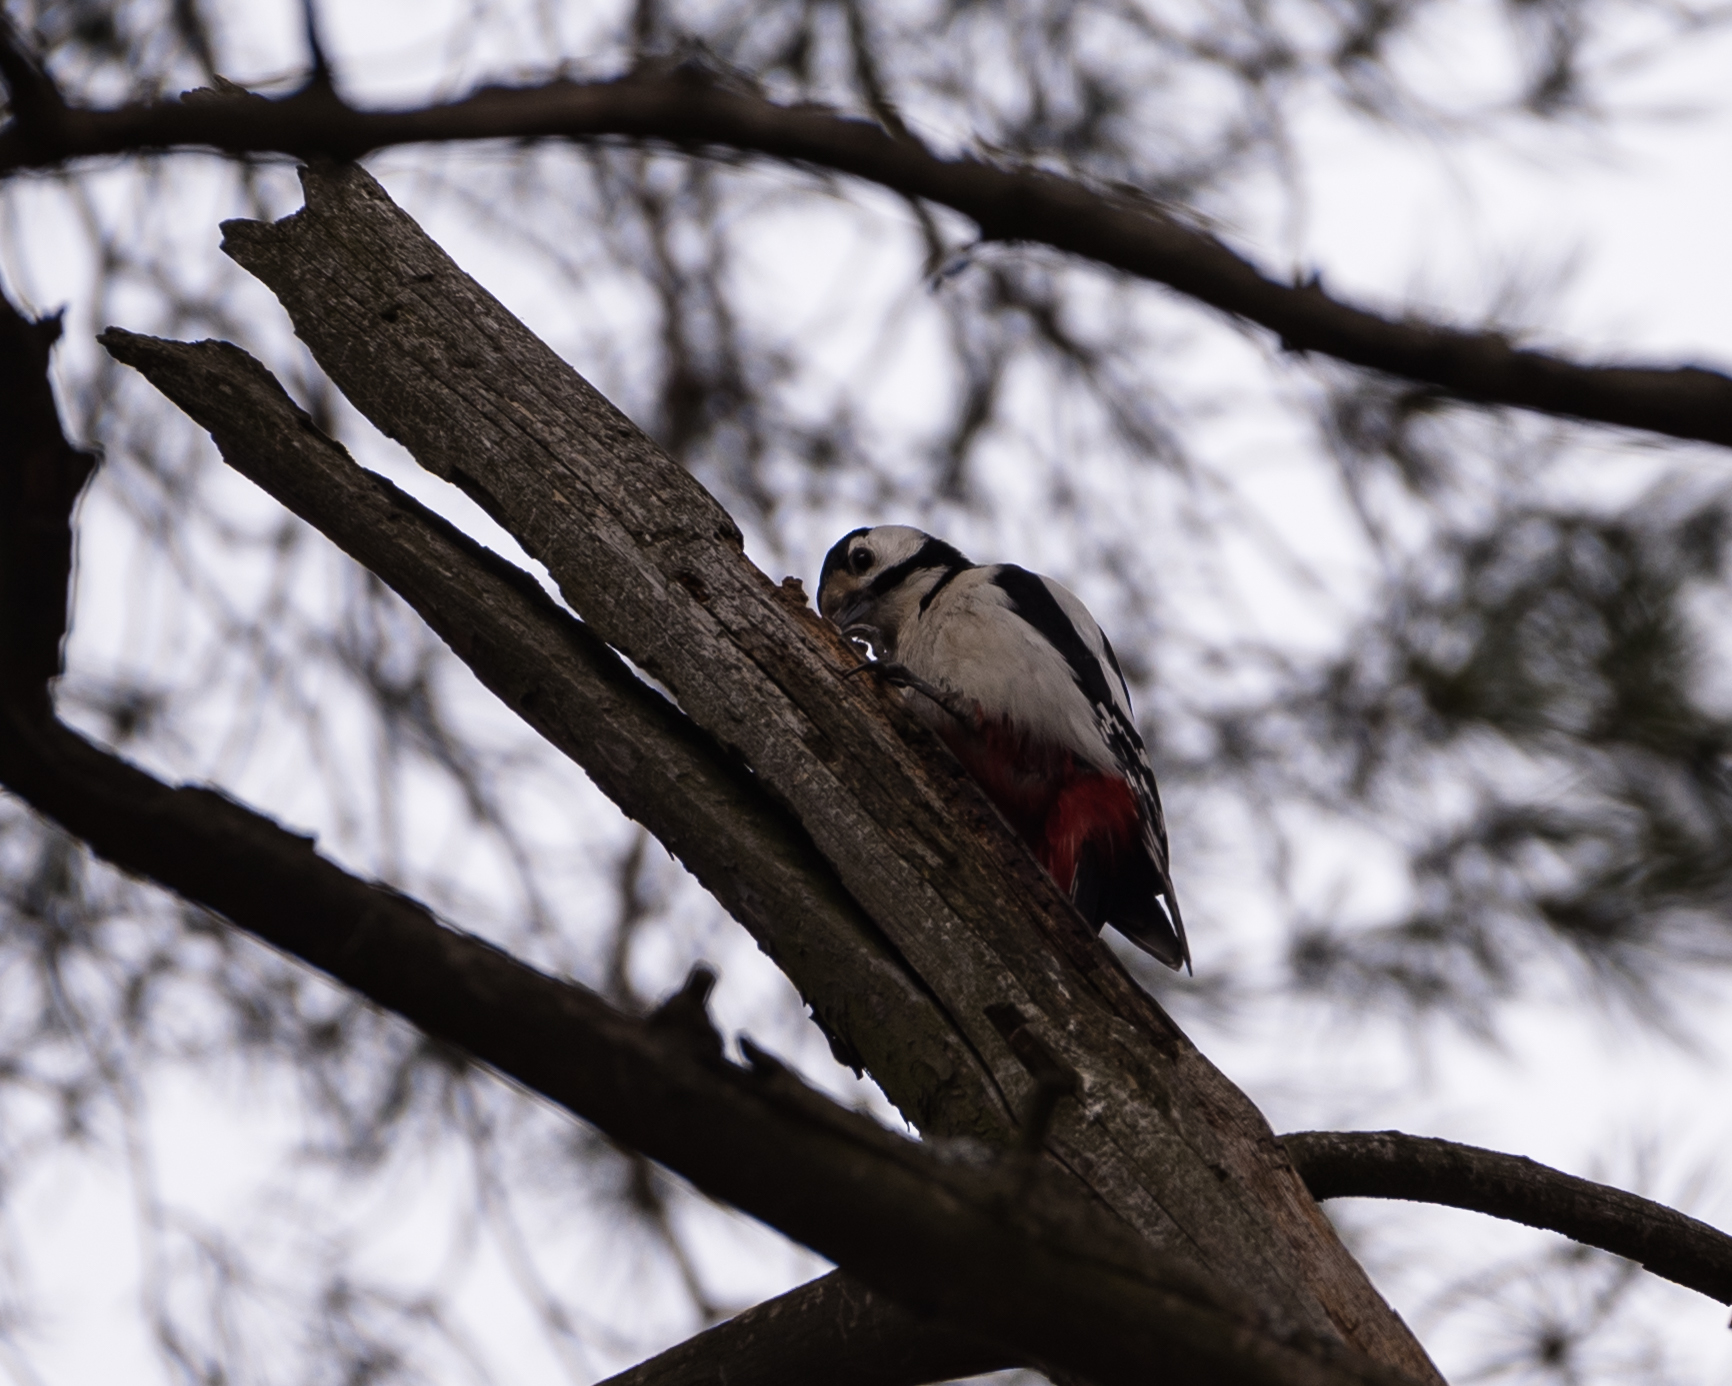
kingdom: Animalia
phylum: Chordata
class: Aves
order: Piciformes
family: Picidae
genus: Dendrocopos
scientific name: Dendrocopos major
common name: Great spotted woodpecker
